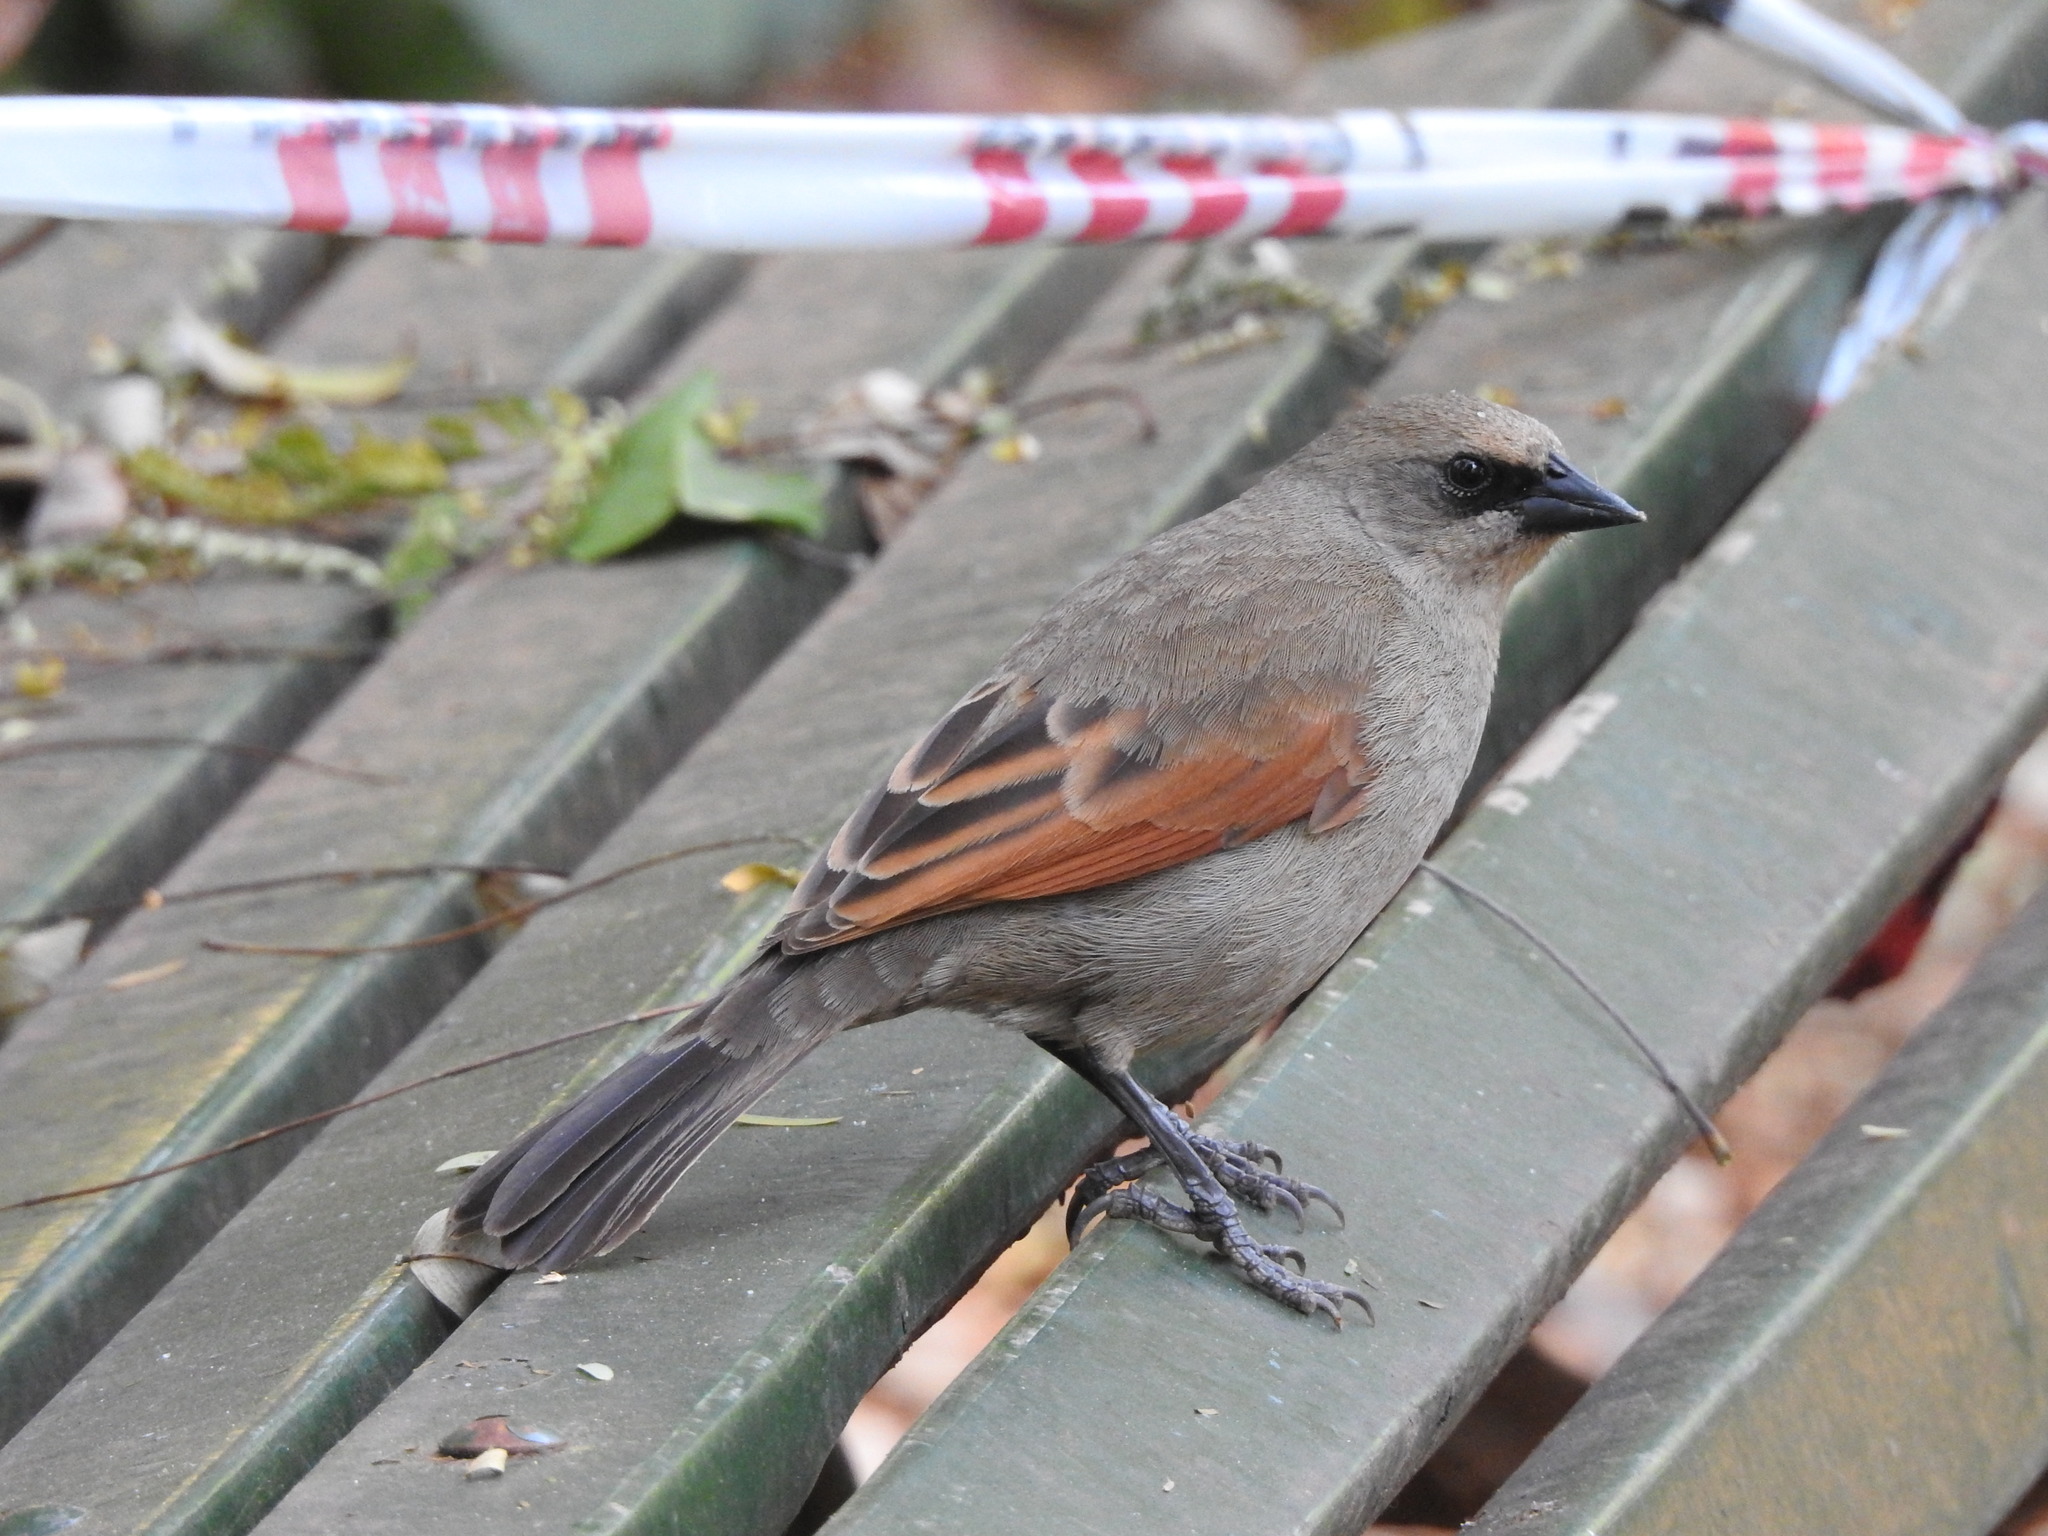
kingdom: Animalia
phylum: Chordata
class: Aves
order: Passeriformes
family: Icteridae
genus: Agelaioides
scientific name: Agelaioides badius
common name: Baywing
